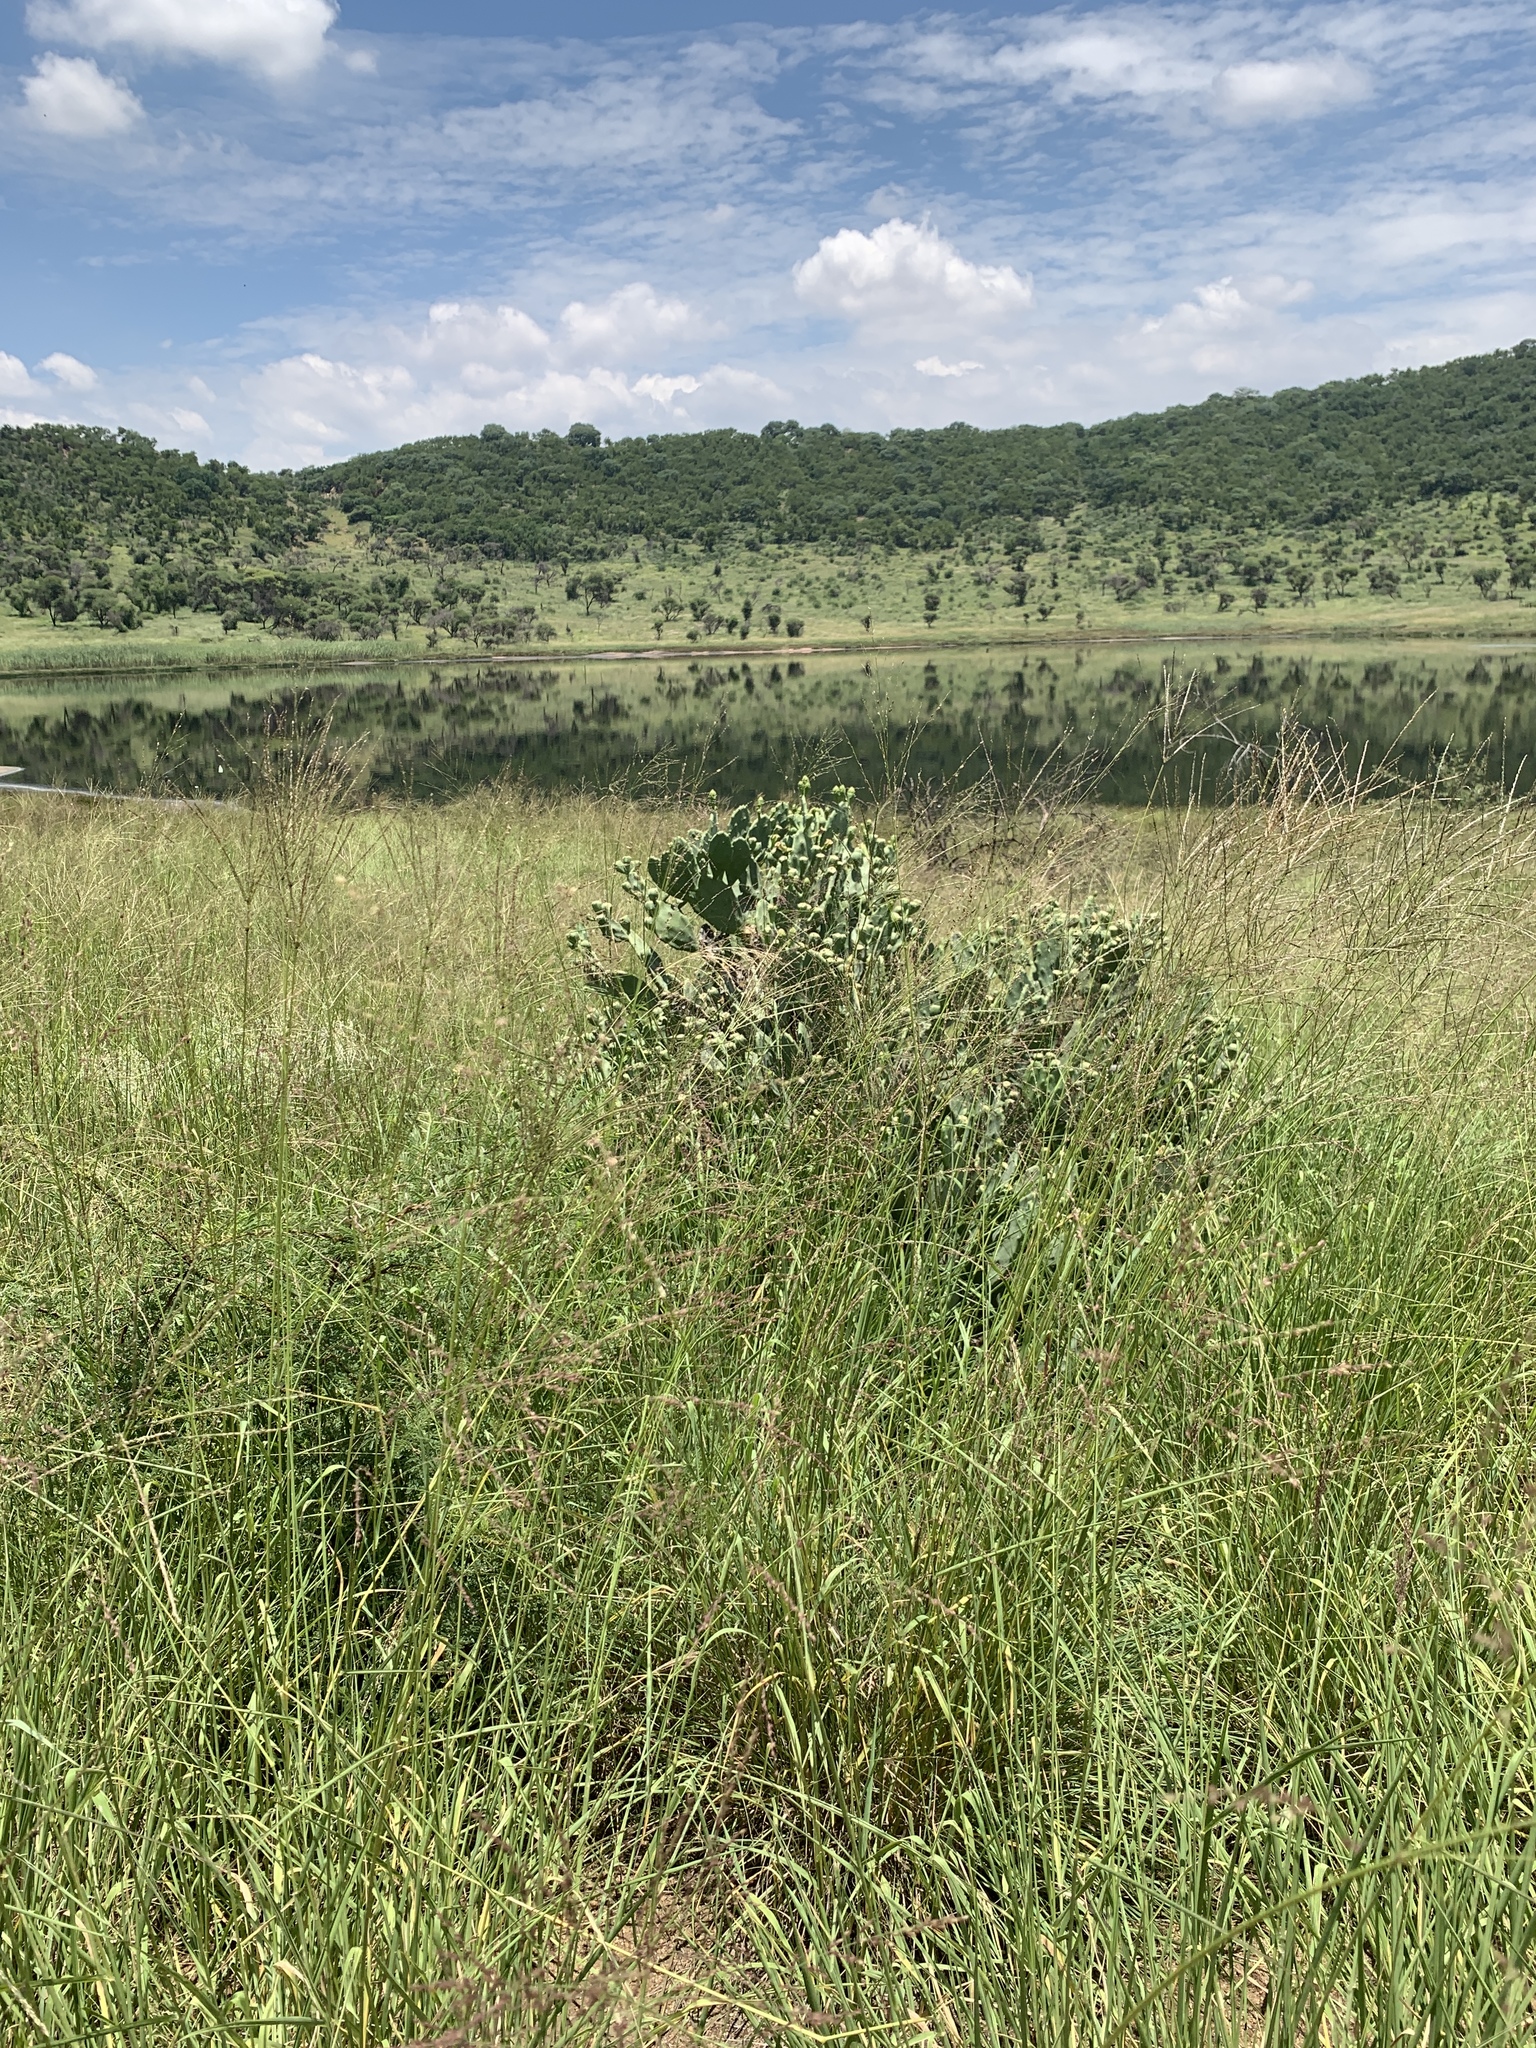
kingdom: Plantae
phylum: Tracheophyta
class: Magnoliopsida
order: Caryophyllales
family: Cactaceae
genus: Opuntia
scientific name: Opuntia stricta
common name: Erect pricklypear
